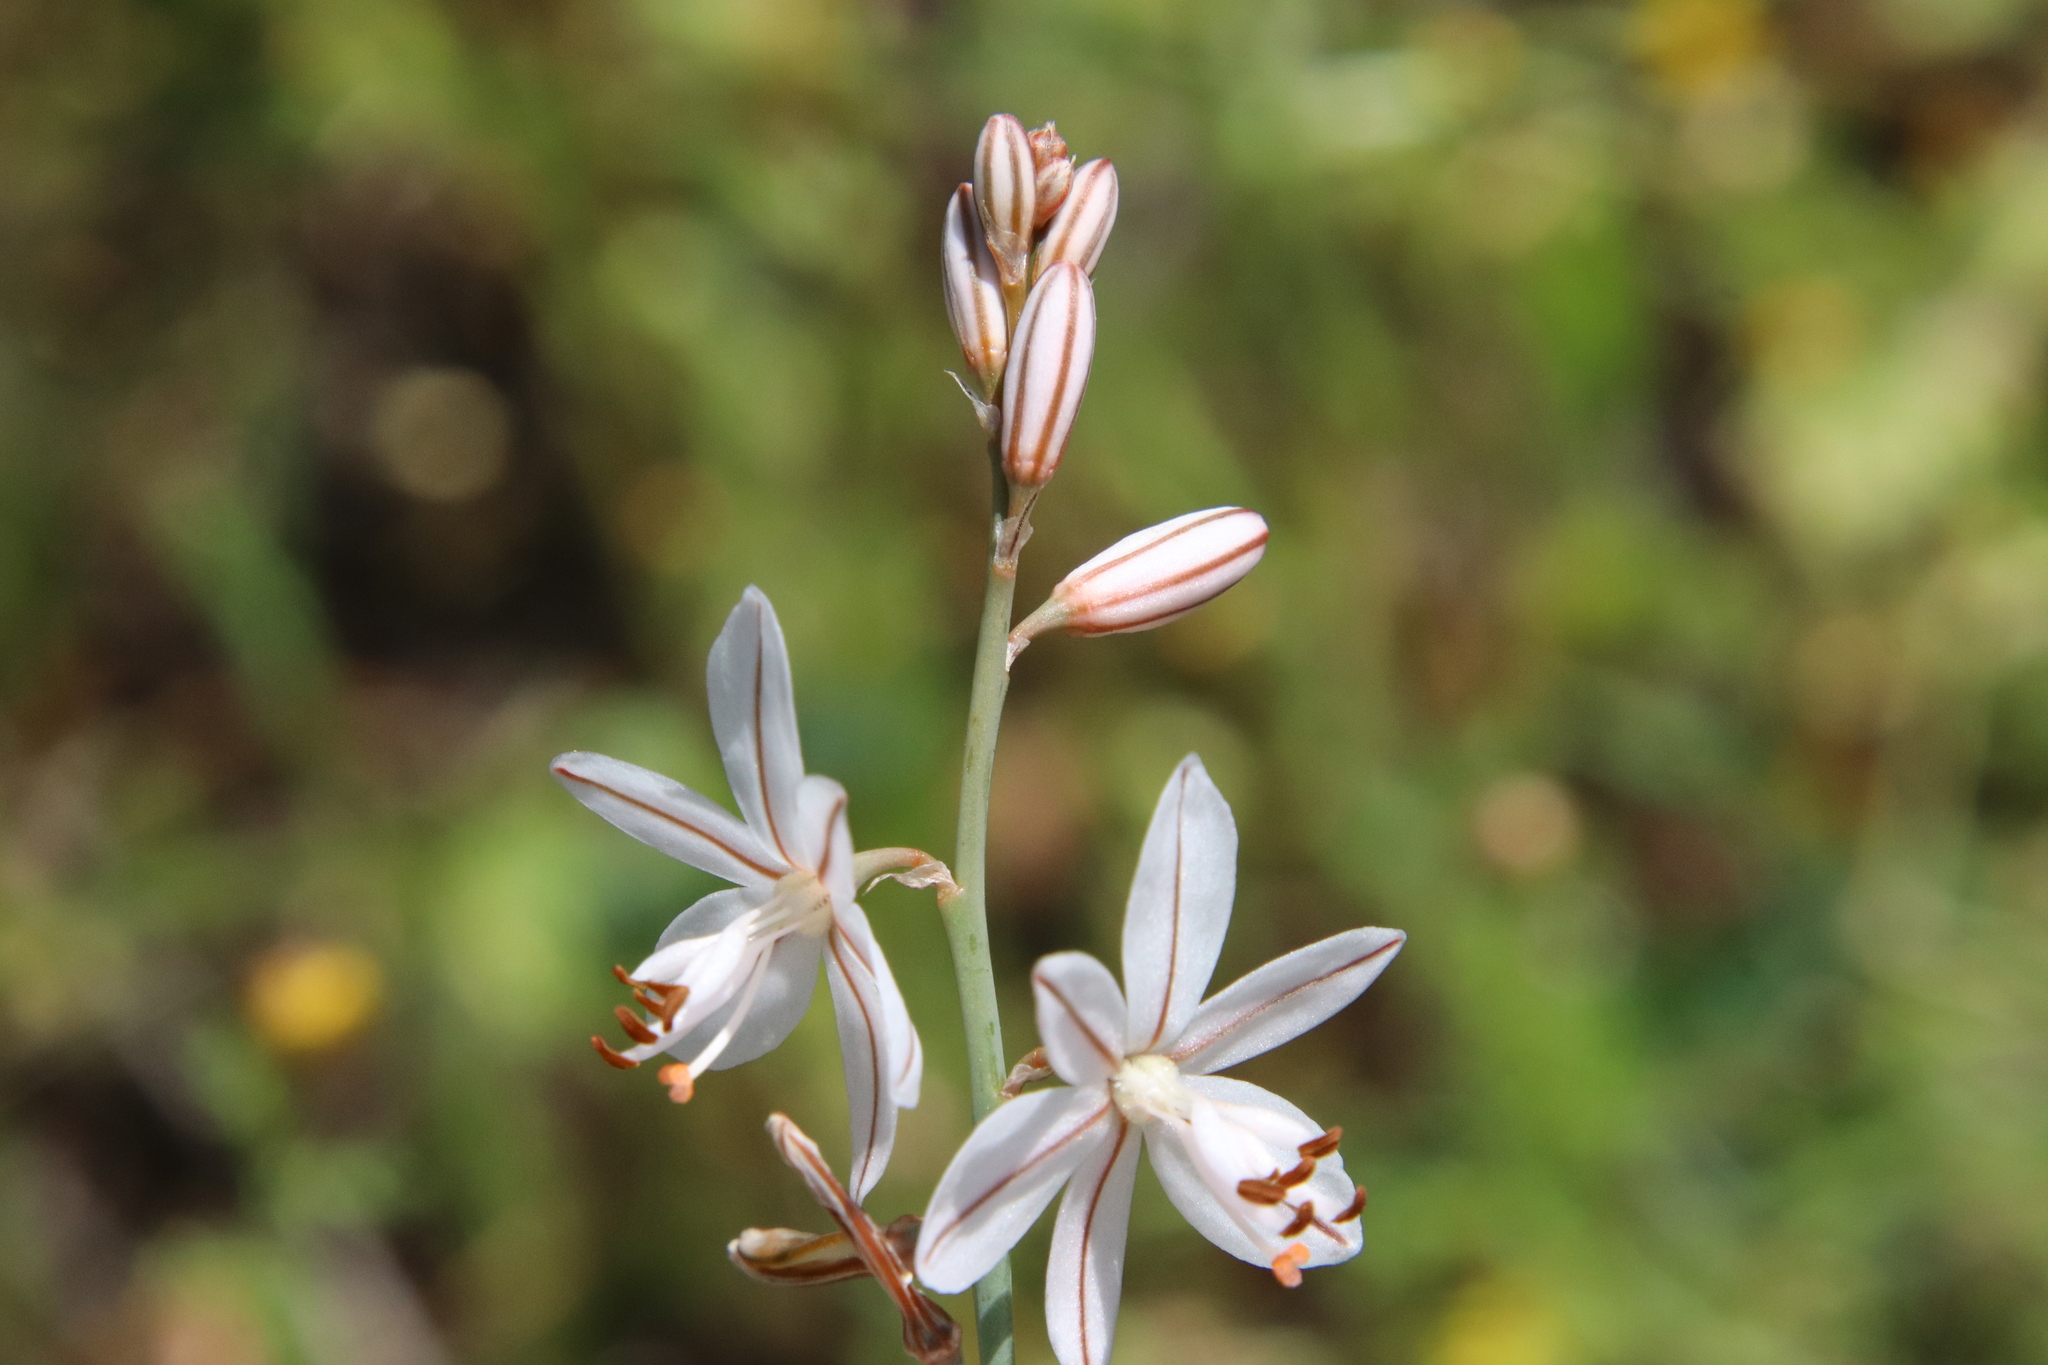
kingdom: Plantae
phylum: Tracheophyta
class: Liliopsida
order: Asparagales
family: Asphodelaceae
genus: Asphodelus
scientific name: Asphodelus fistulosus
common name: Onionweed
